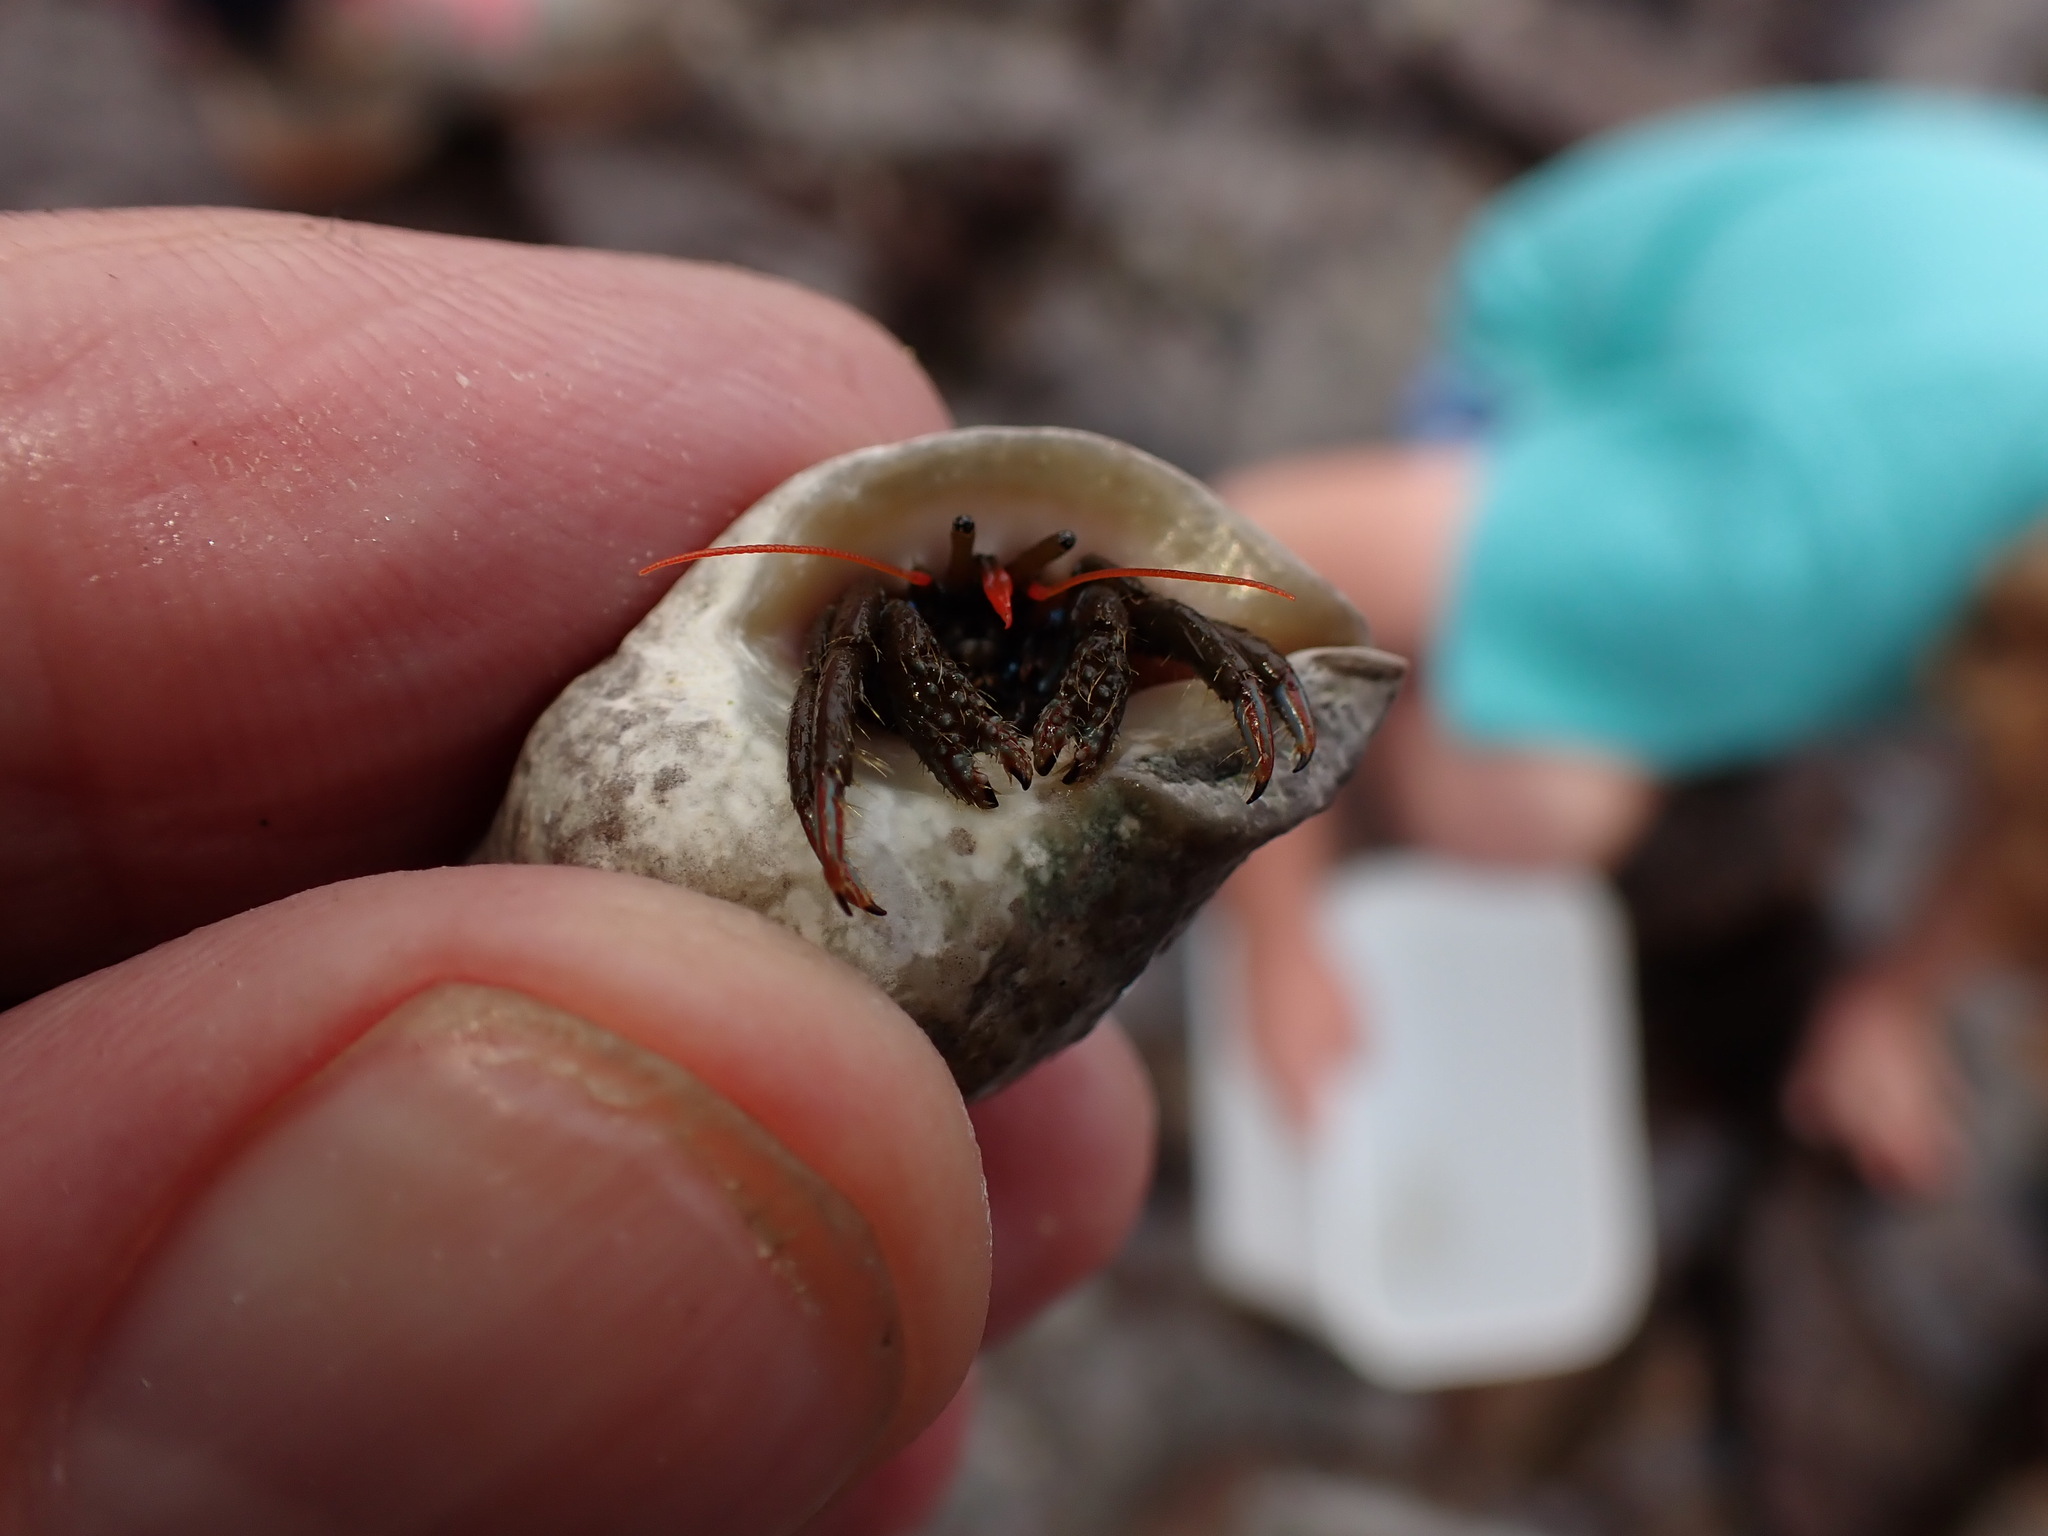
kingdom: Animalia
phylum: Arthropoda
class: Malacostraca
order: Decapoda
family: Diogenidae
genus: Clibanarius
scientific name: Clibanarius erythropus
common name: Hermit crab
